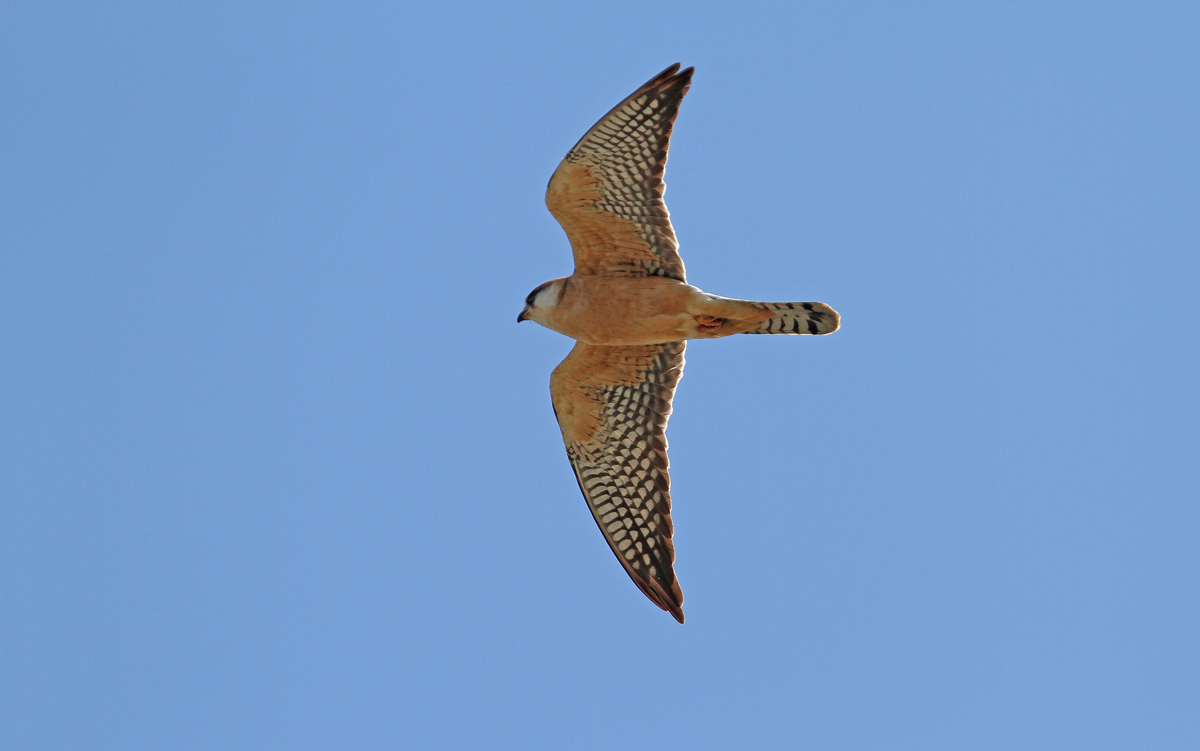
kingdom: Animalia
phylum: Chordata
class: Aves
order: Falconiformes
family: Falconidae
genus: Falco
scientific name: Falco vespertinus
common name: Red-footed falcon
